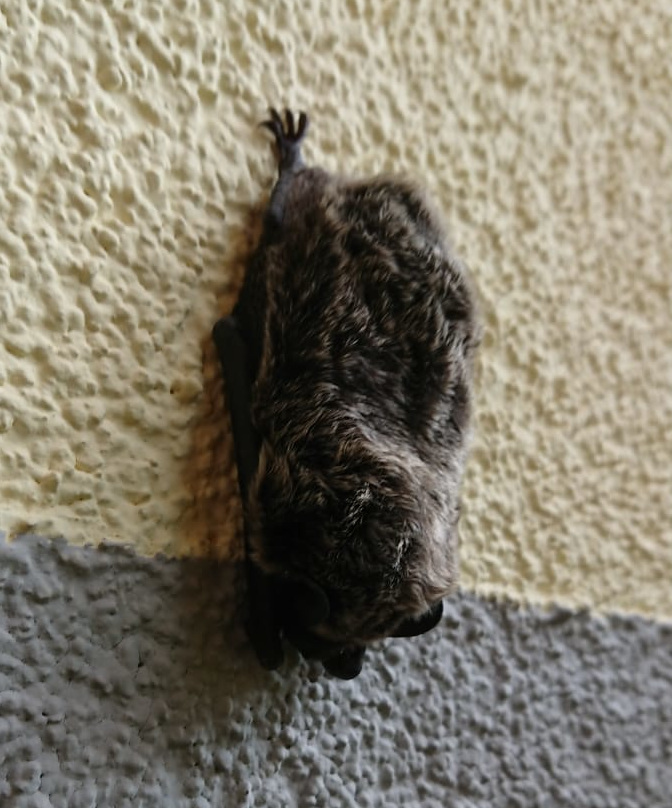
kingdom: Animalia
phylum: Chordata
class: Mammalia
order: Chiroptera
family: Vespertilionidae
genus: Vespertilio
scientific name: Vespertilio murinus
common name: Particolored bat
